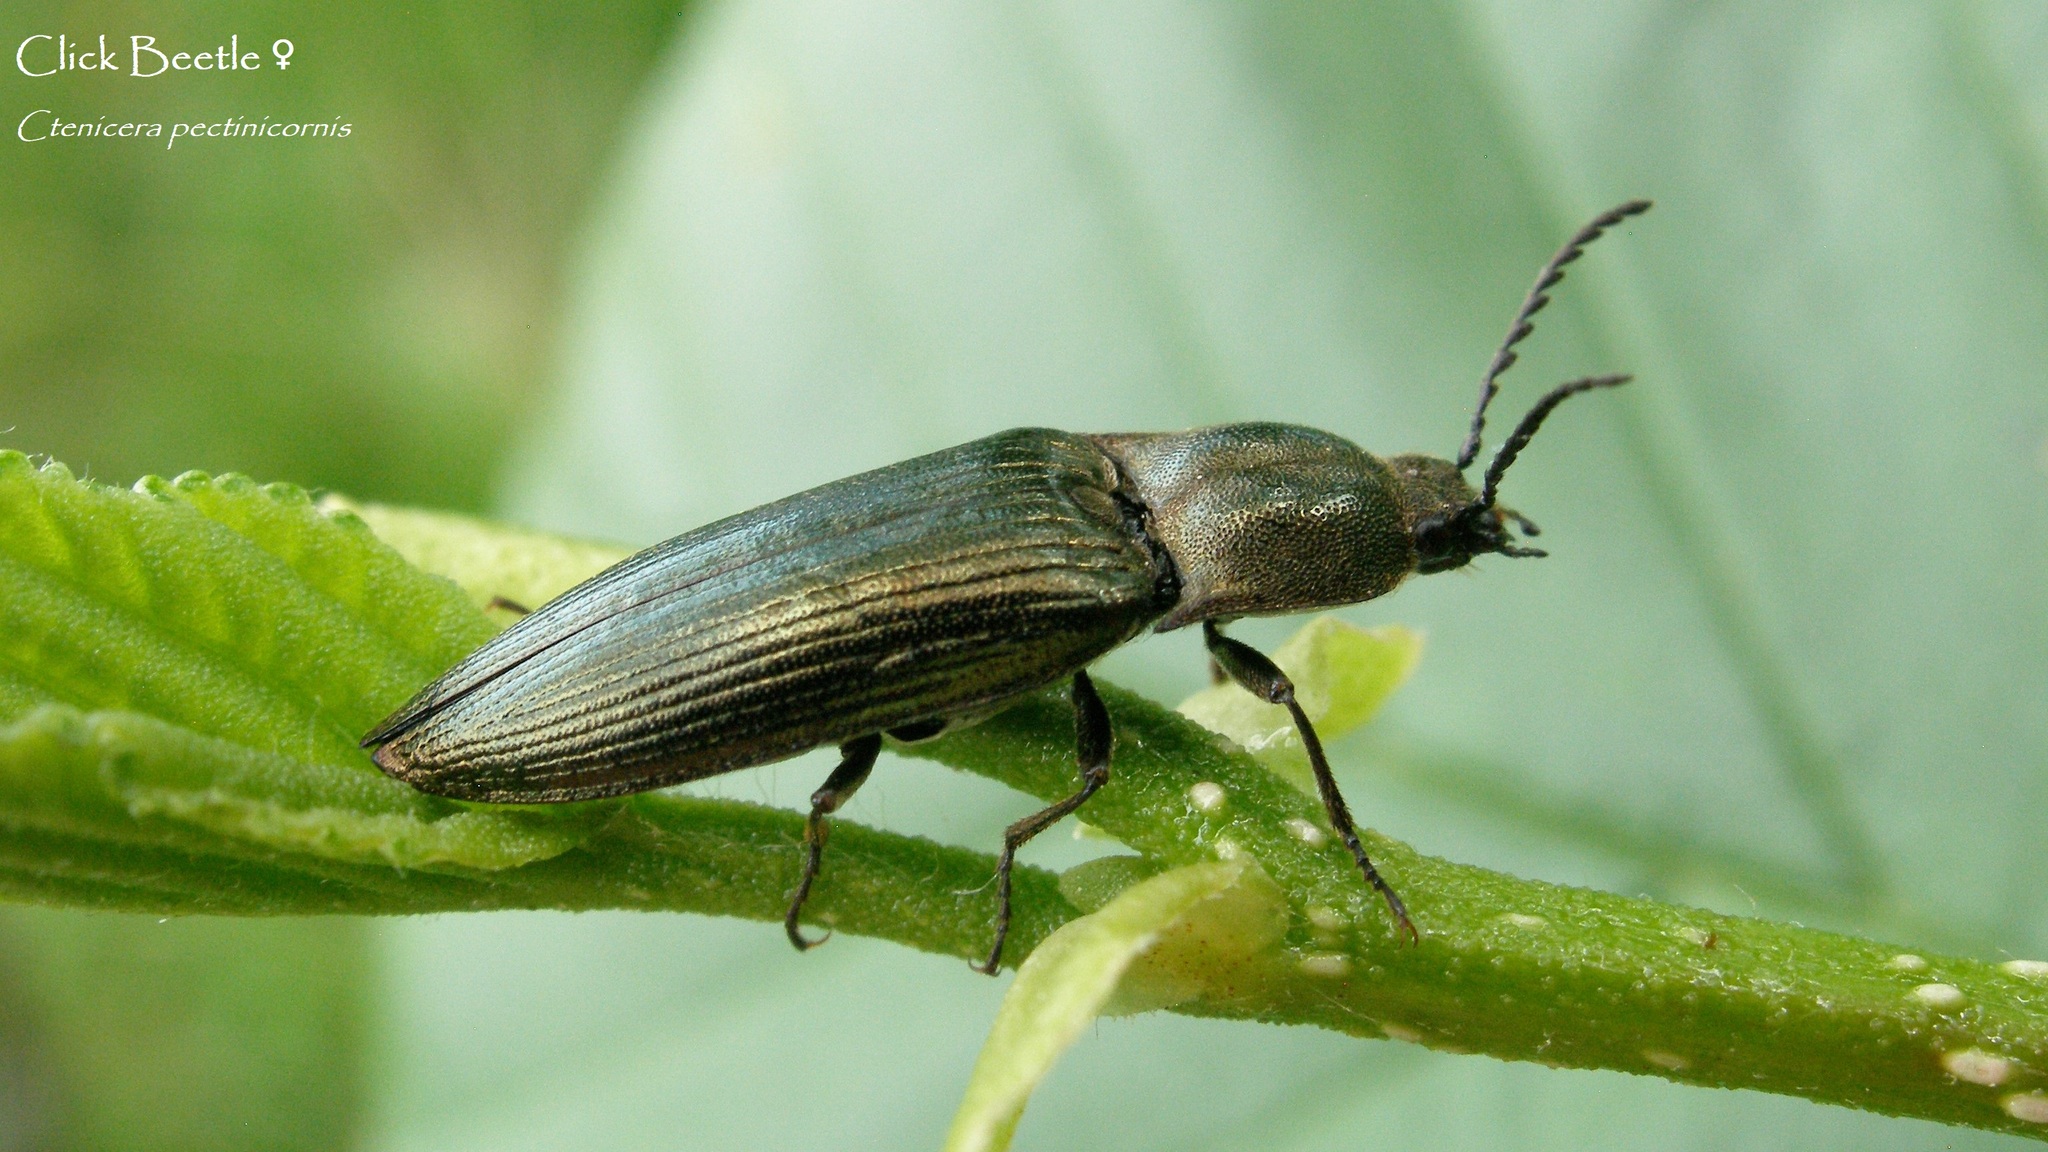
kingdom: Animalia
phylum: Arthropoda
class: Insecta
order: Coleoptera
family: Elateridae
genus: Ctenicera
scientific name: Ctenicera pectinicornis
